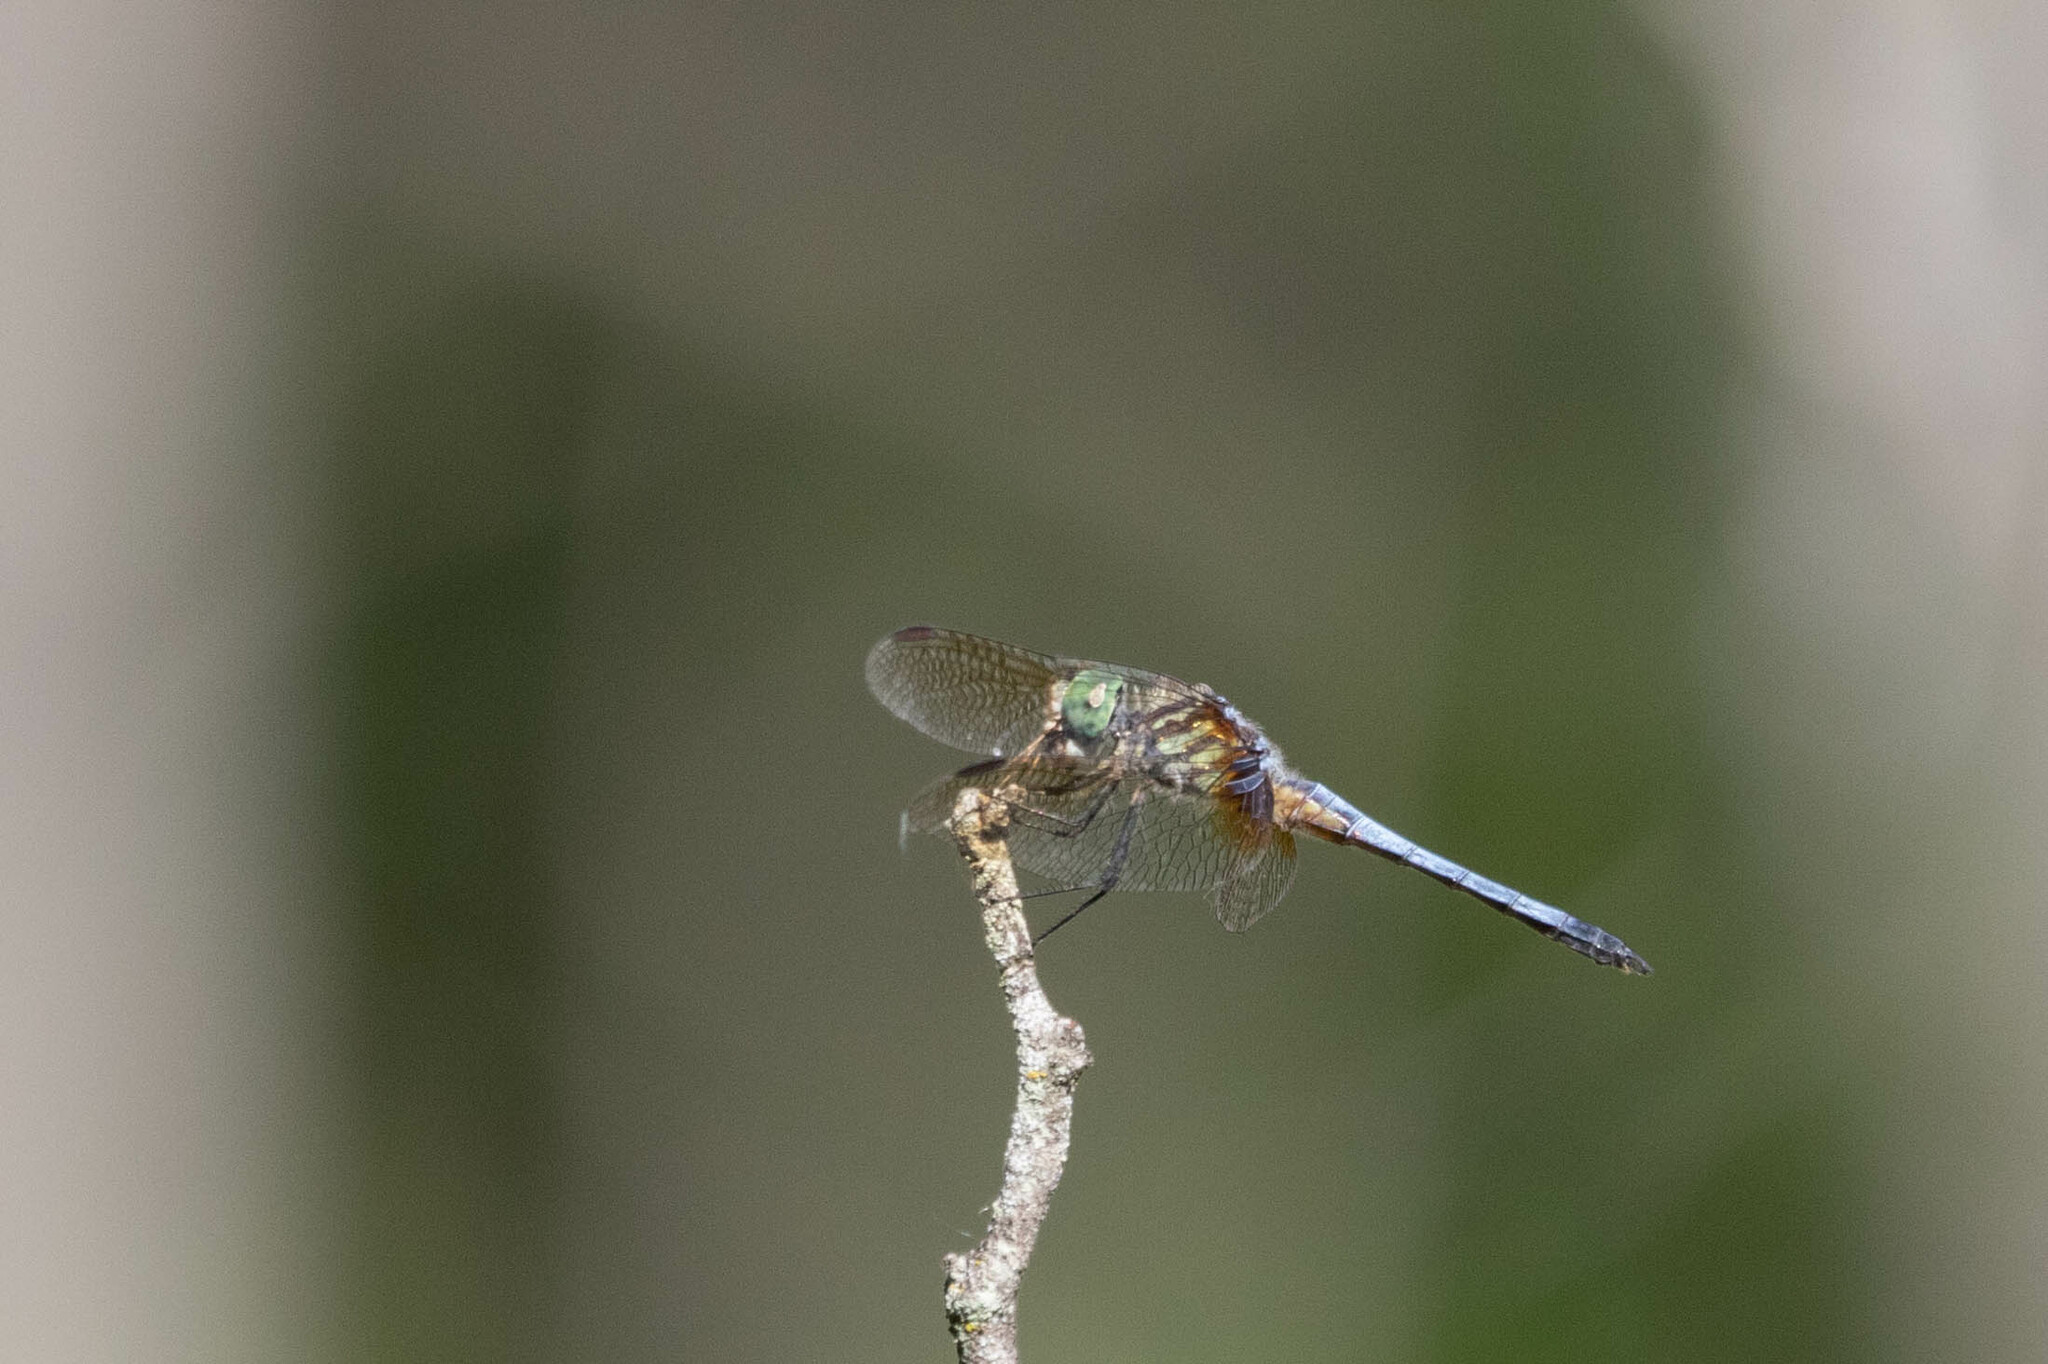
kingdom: Animalia
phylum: Arthropoda
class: Insecta
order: Odonata
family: Libellulidae
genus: Pachydiplax
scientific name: Pachydiplax longipennis
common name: Blue dasher
